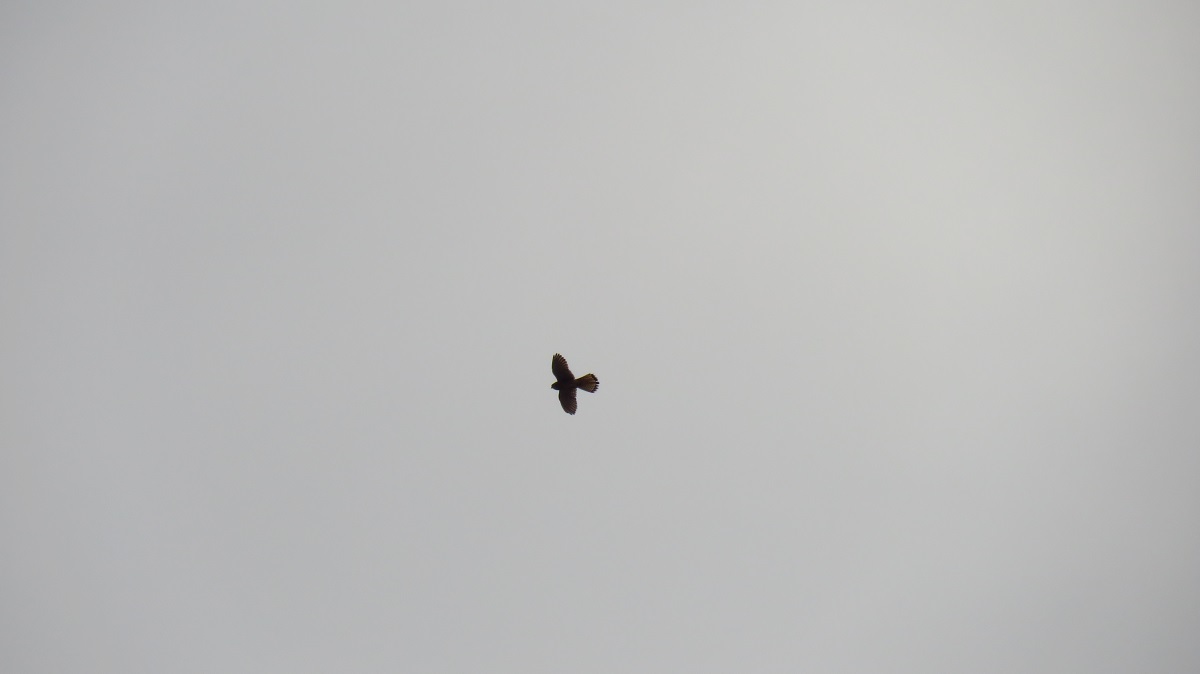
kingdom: Animalia
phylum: Chordata
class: Aves
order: Falconiformes
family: Falconidae
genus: Falco
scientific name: Falco tinnunculus
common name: Common kestrel
